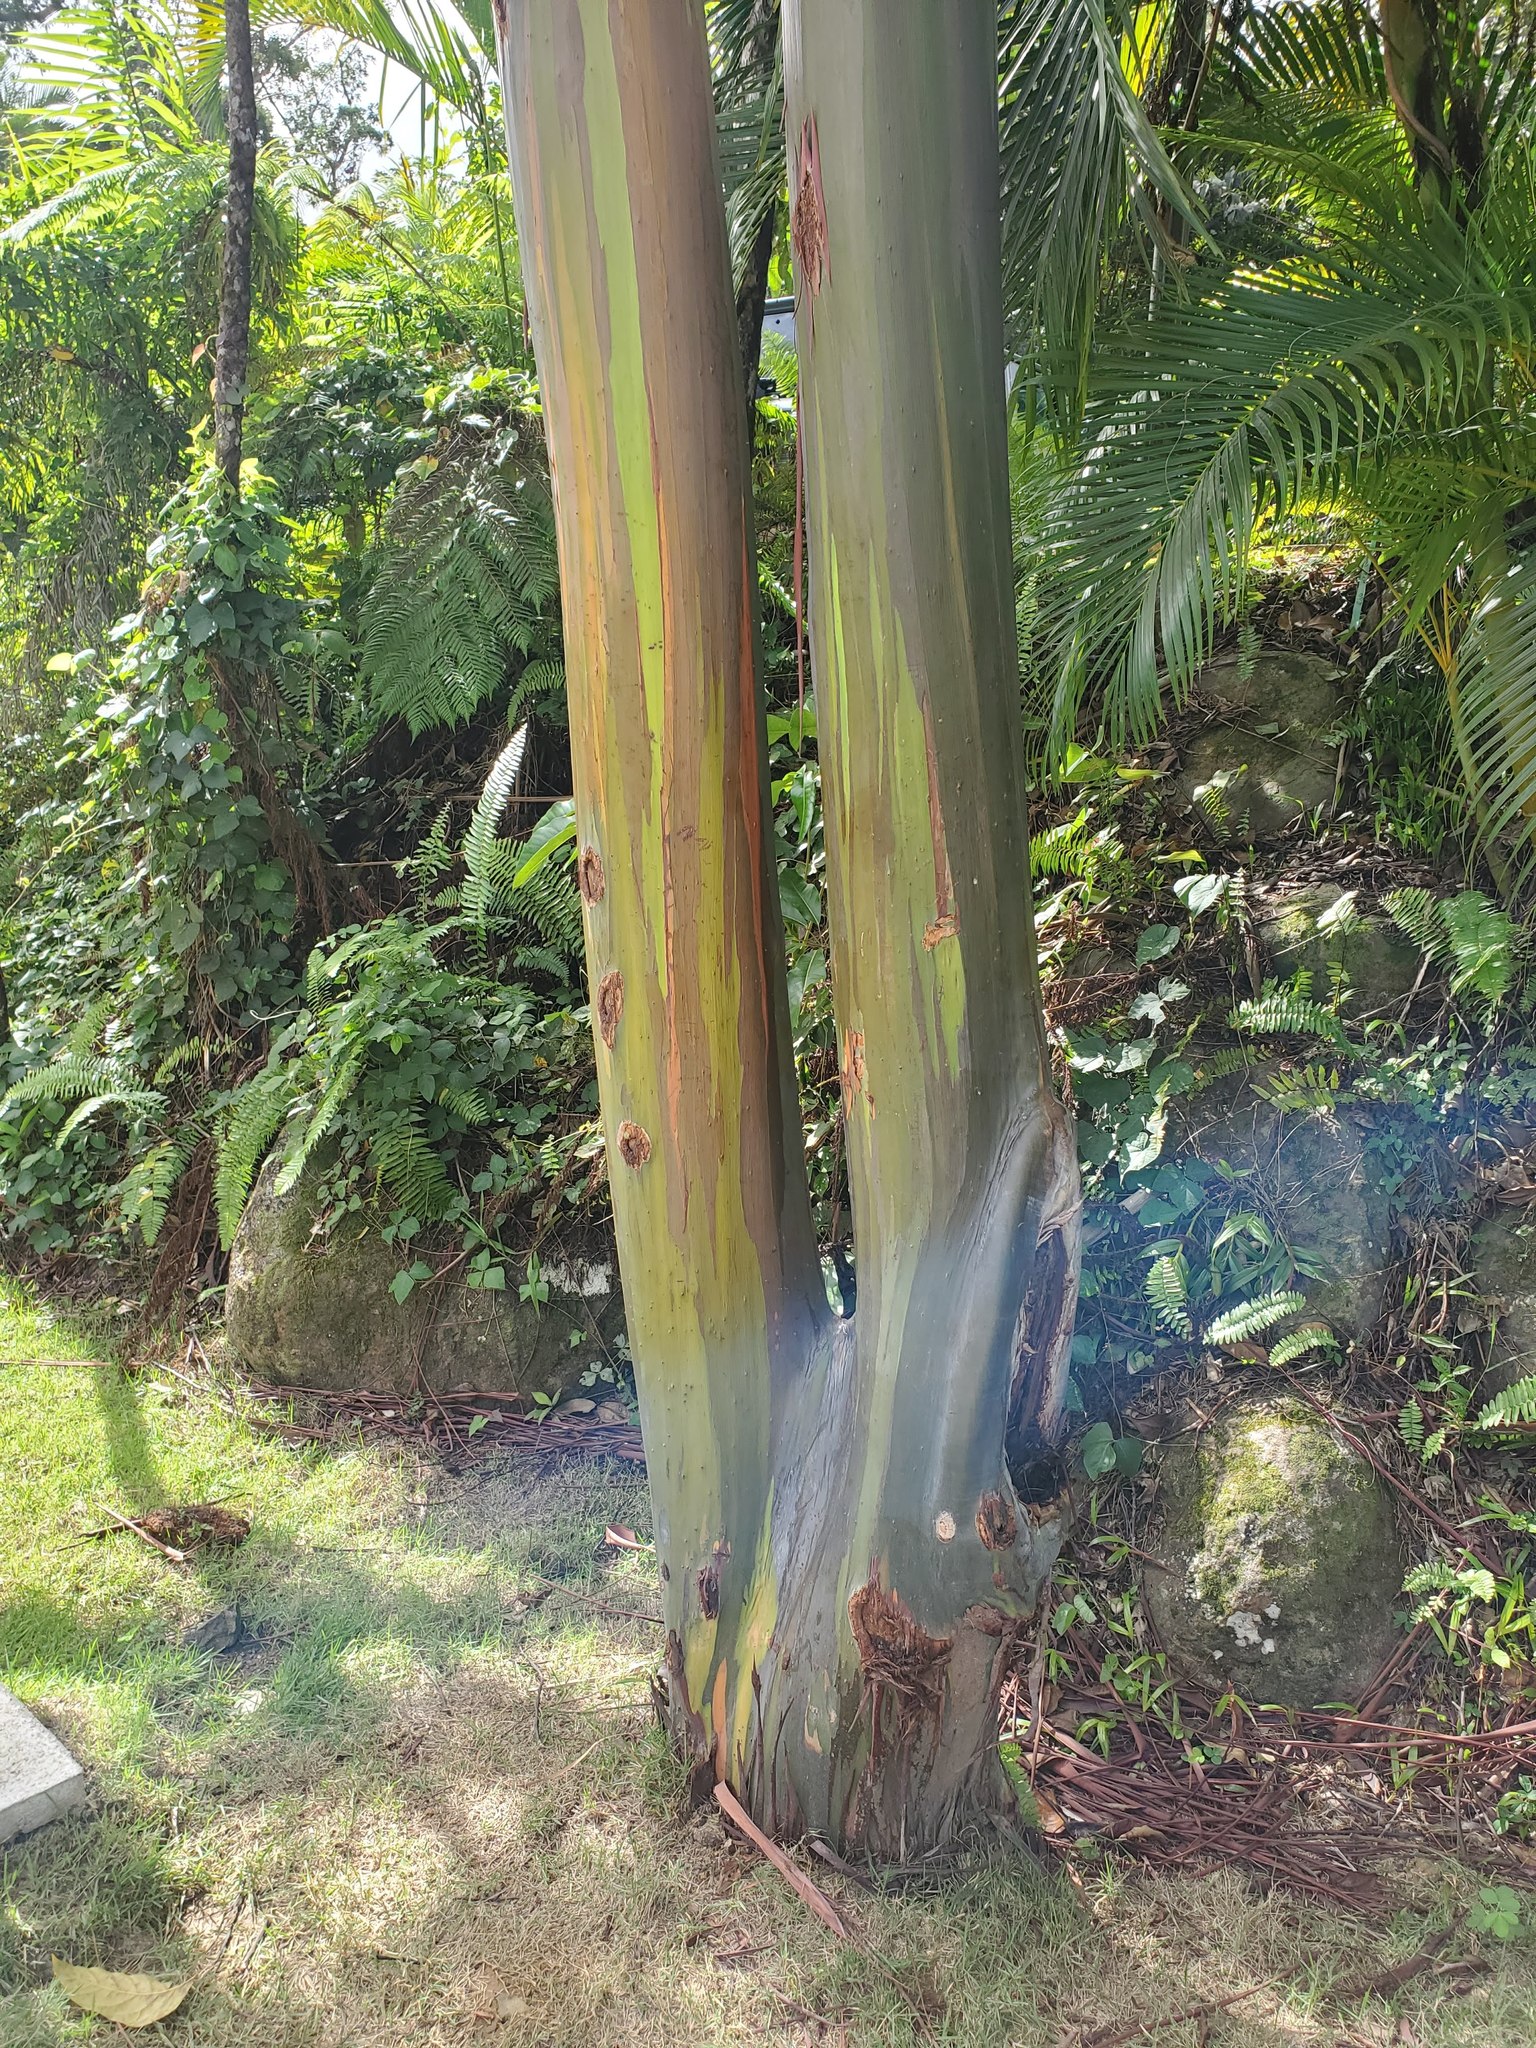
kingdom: Plantae
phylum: Tracheophyta
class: Magnoliopsida
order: Myrtales
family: Myrtaceae
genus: Eucalyptus
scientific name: Eucalyptus deglupta
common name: Mindanao gum
